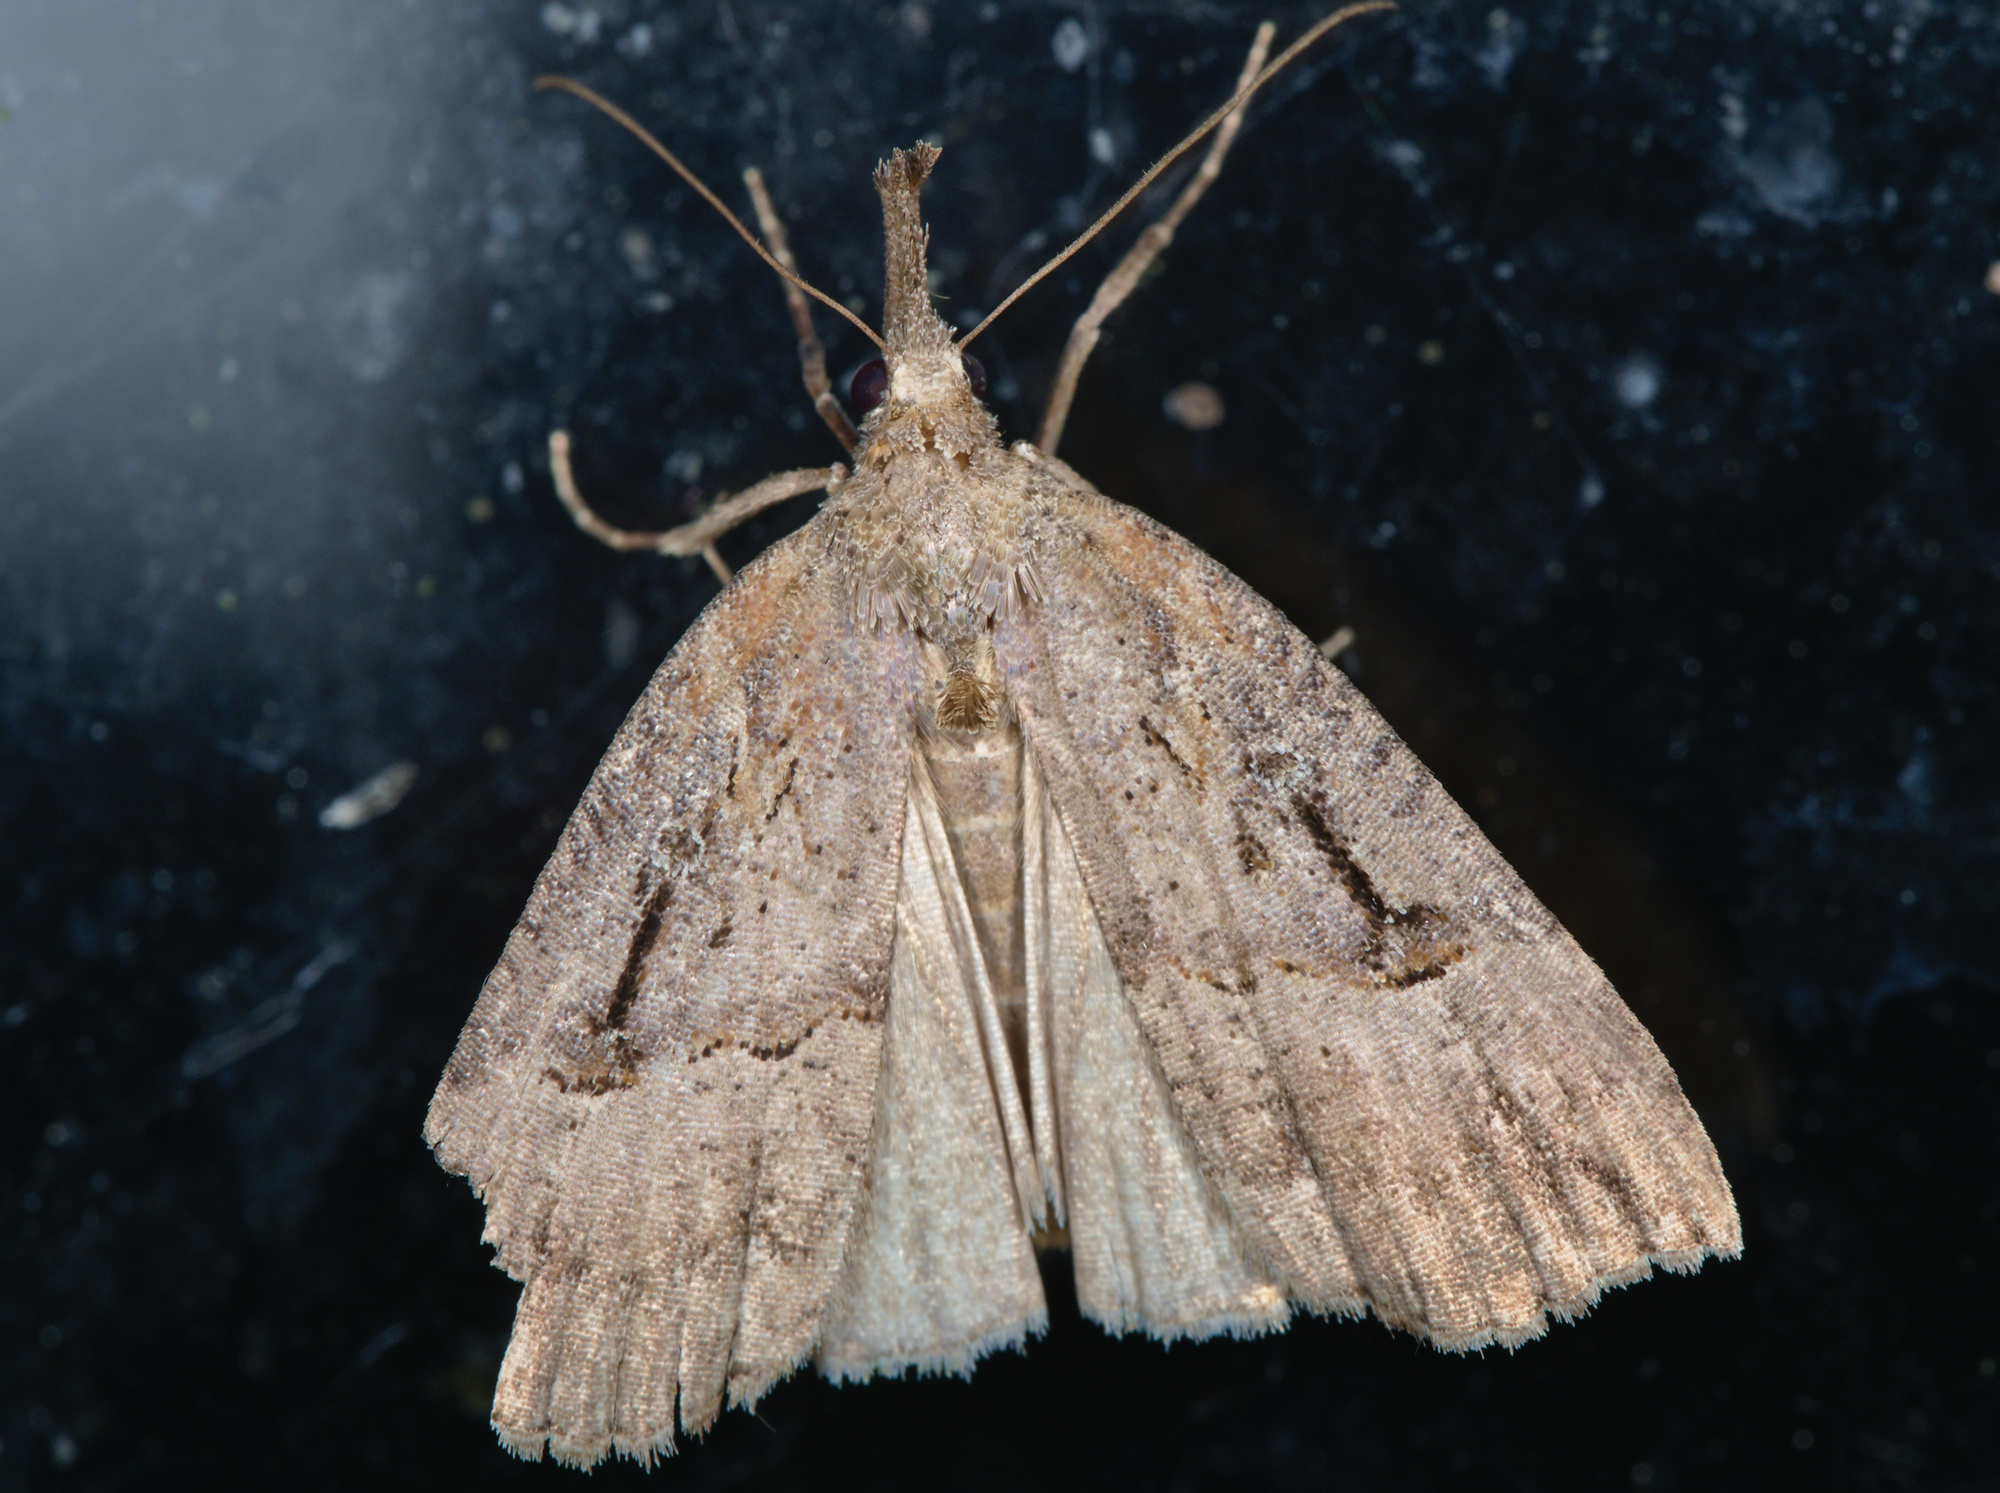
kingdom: Animalia
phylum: Arthropoda
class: Insecta
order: Lepidoptera
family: Erebidae
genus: Hypena
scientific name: Hypena rostralis
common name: Buttoned snout
